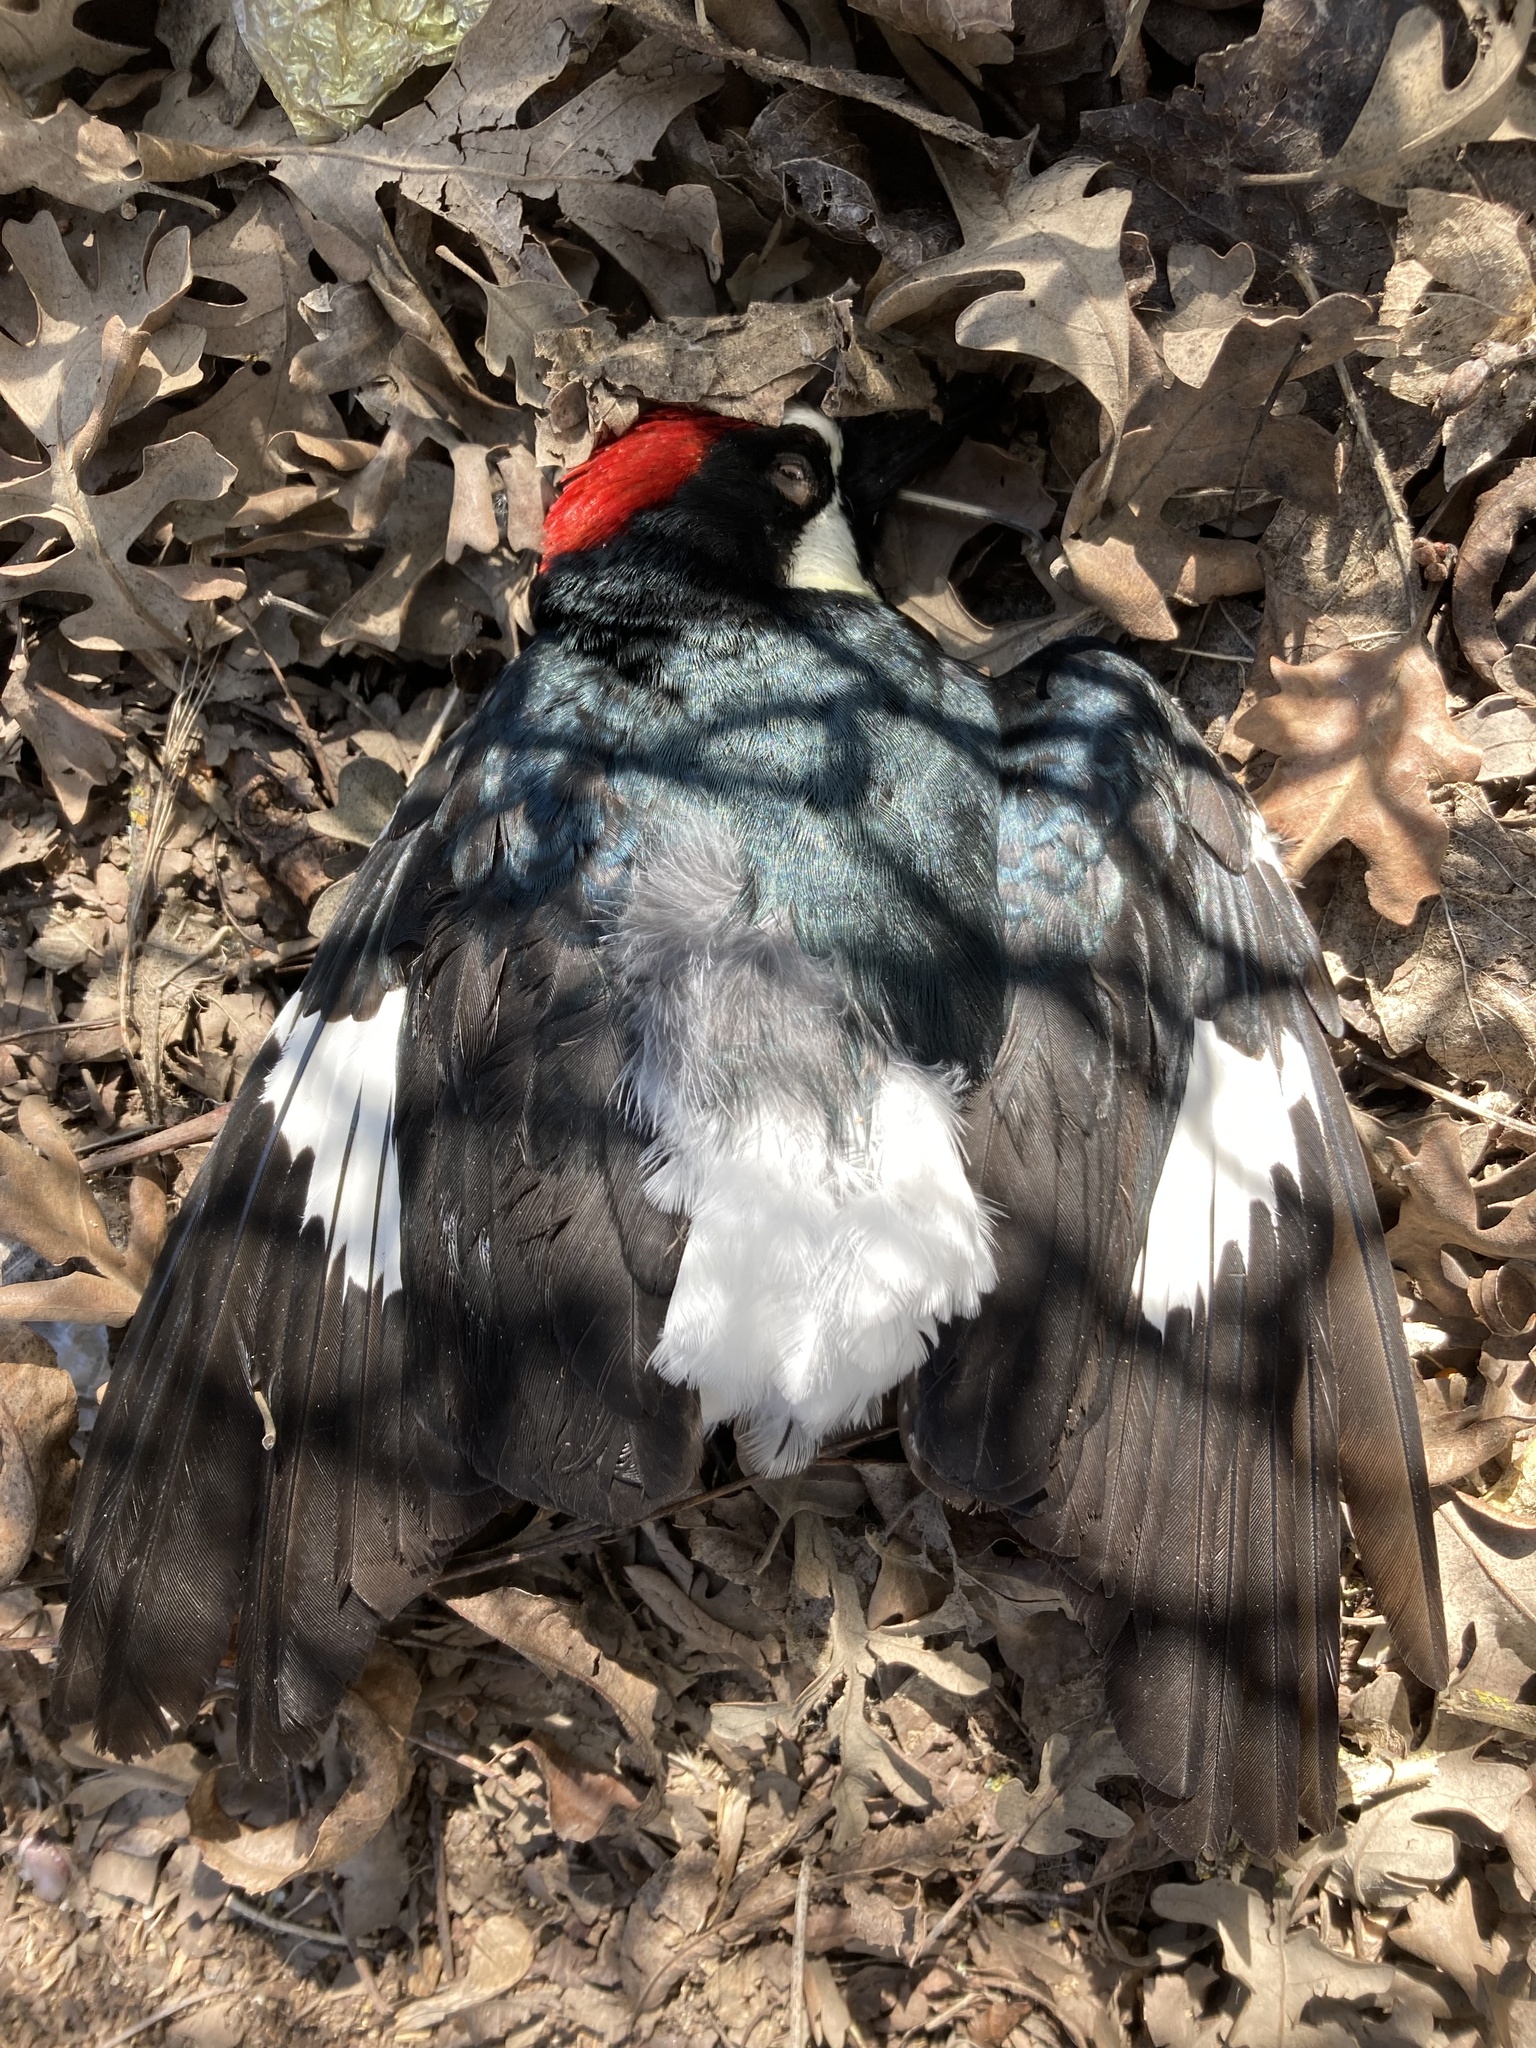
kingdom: Animalia
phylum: Chordata
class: Aves
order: Piciformes
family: Picidae
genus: Melanerpes
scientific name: Melanerpes formicivorus
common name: Acorn woodpecker
